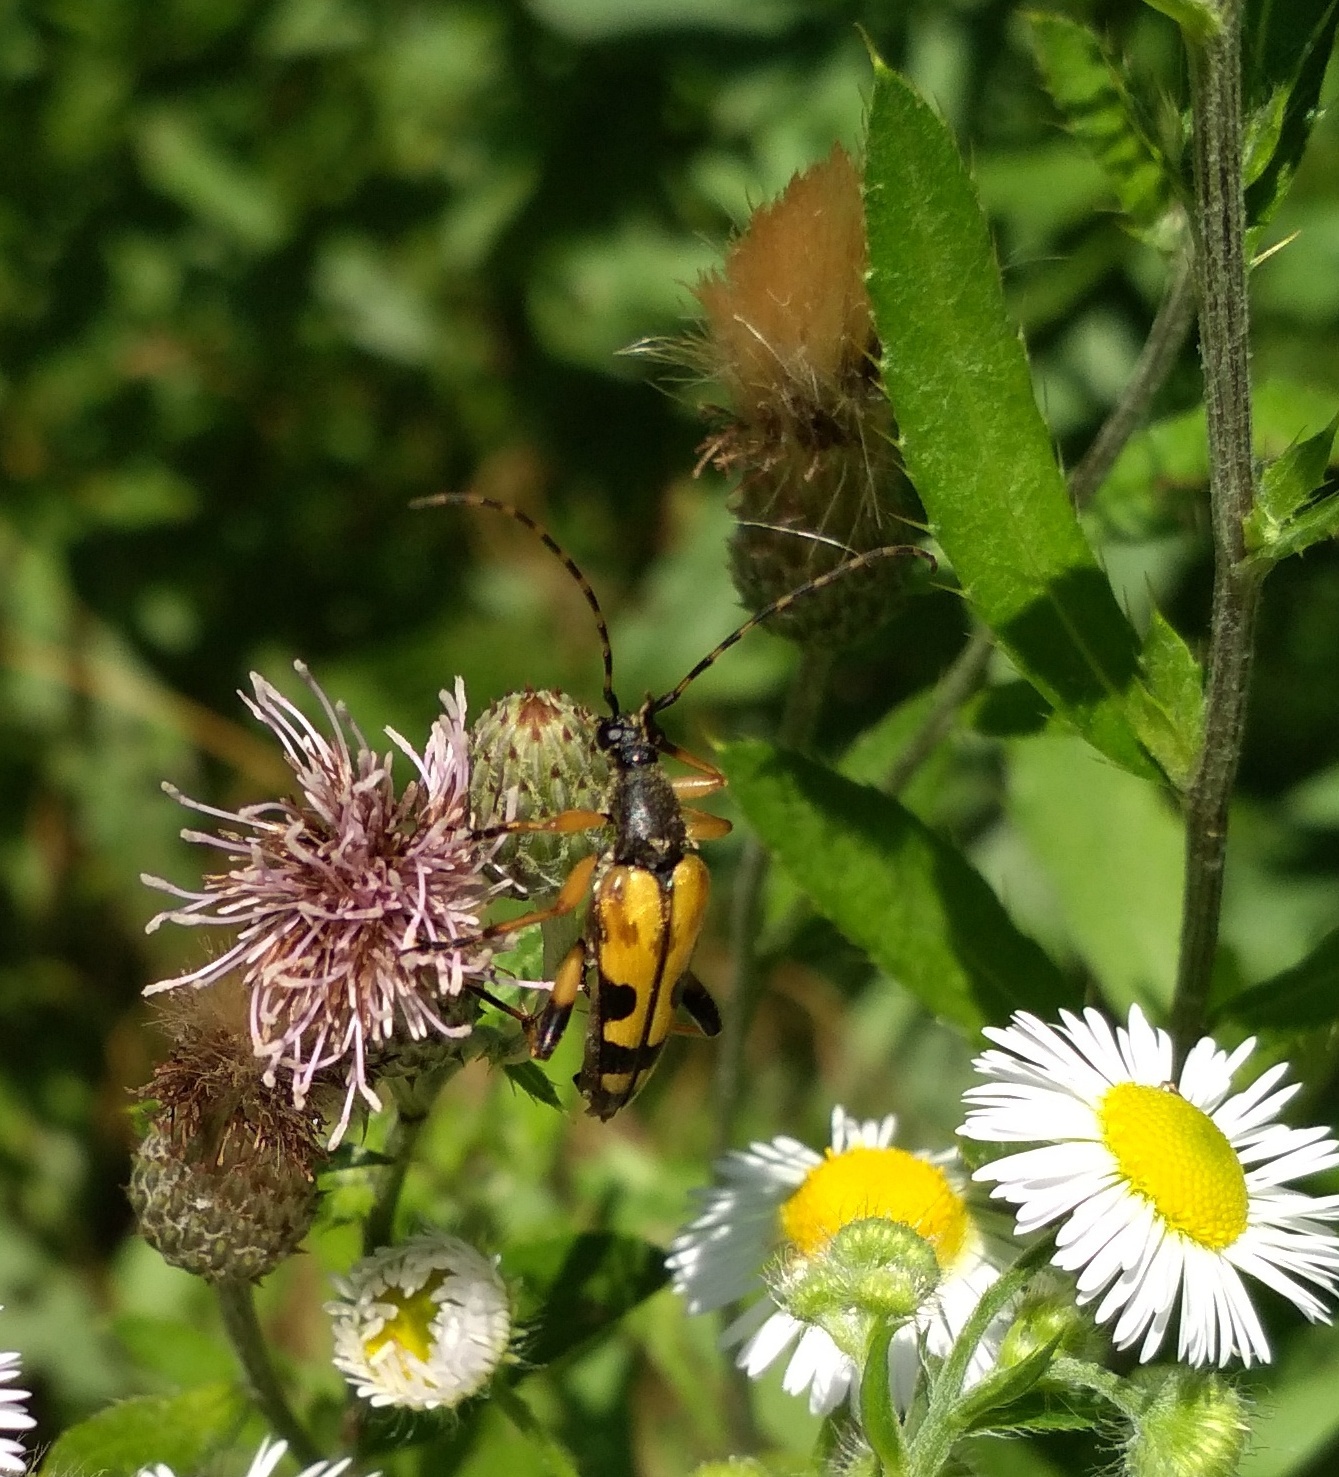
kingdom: Animalia
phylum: Arthropoda
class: Insecta
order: Coleoptera
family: Cerambycidae
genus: Rutpela
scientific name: Rutpela maculata
